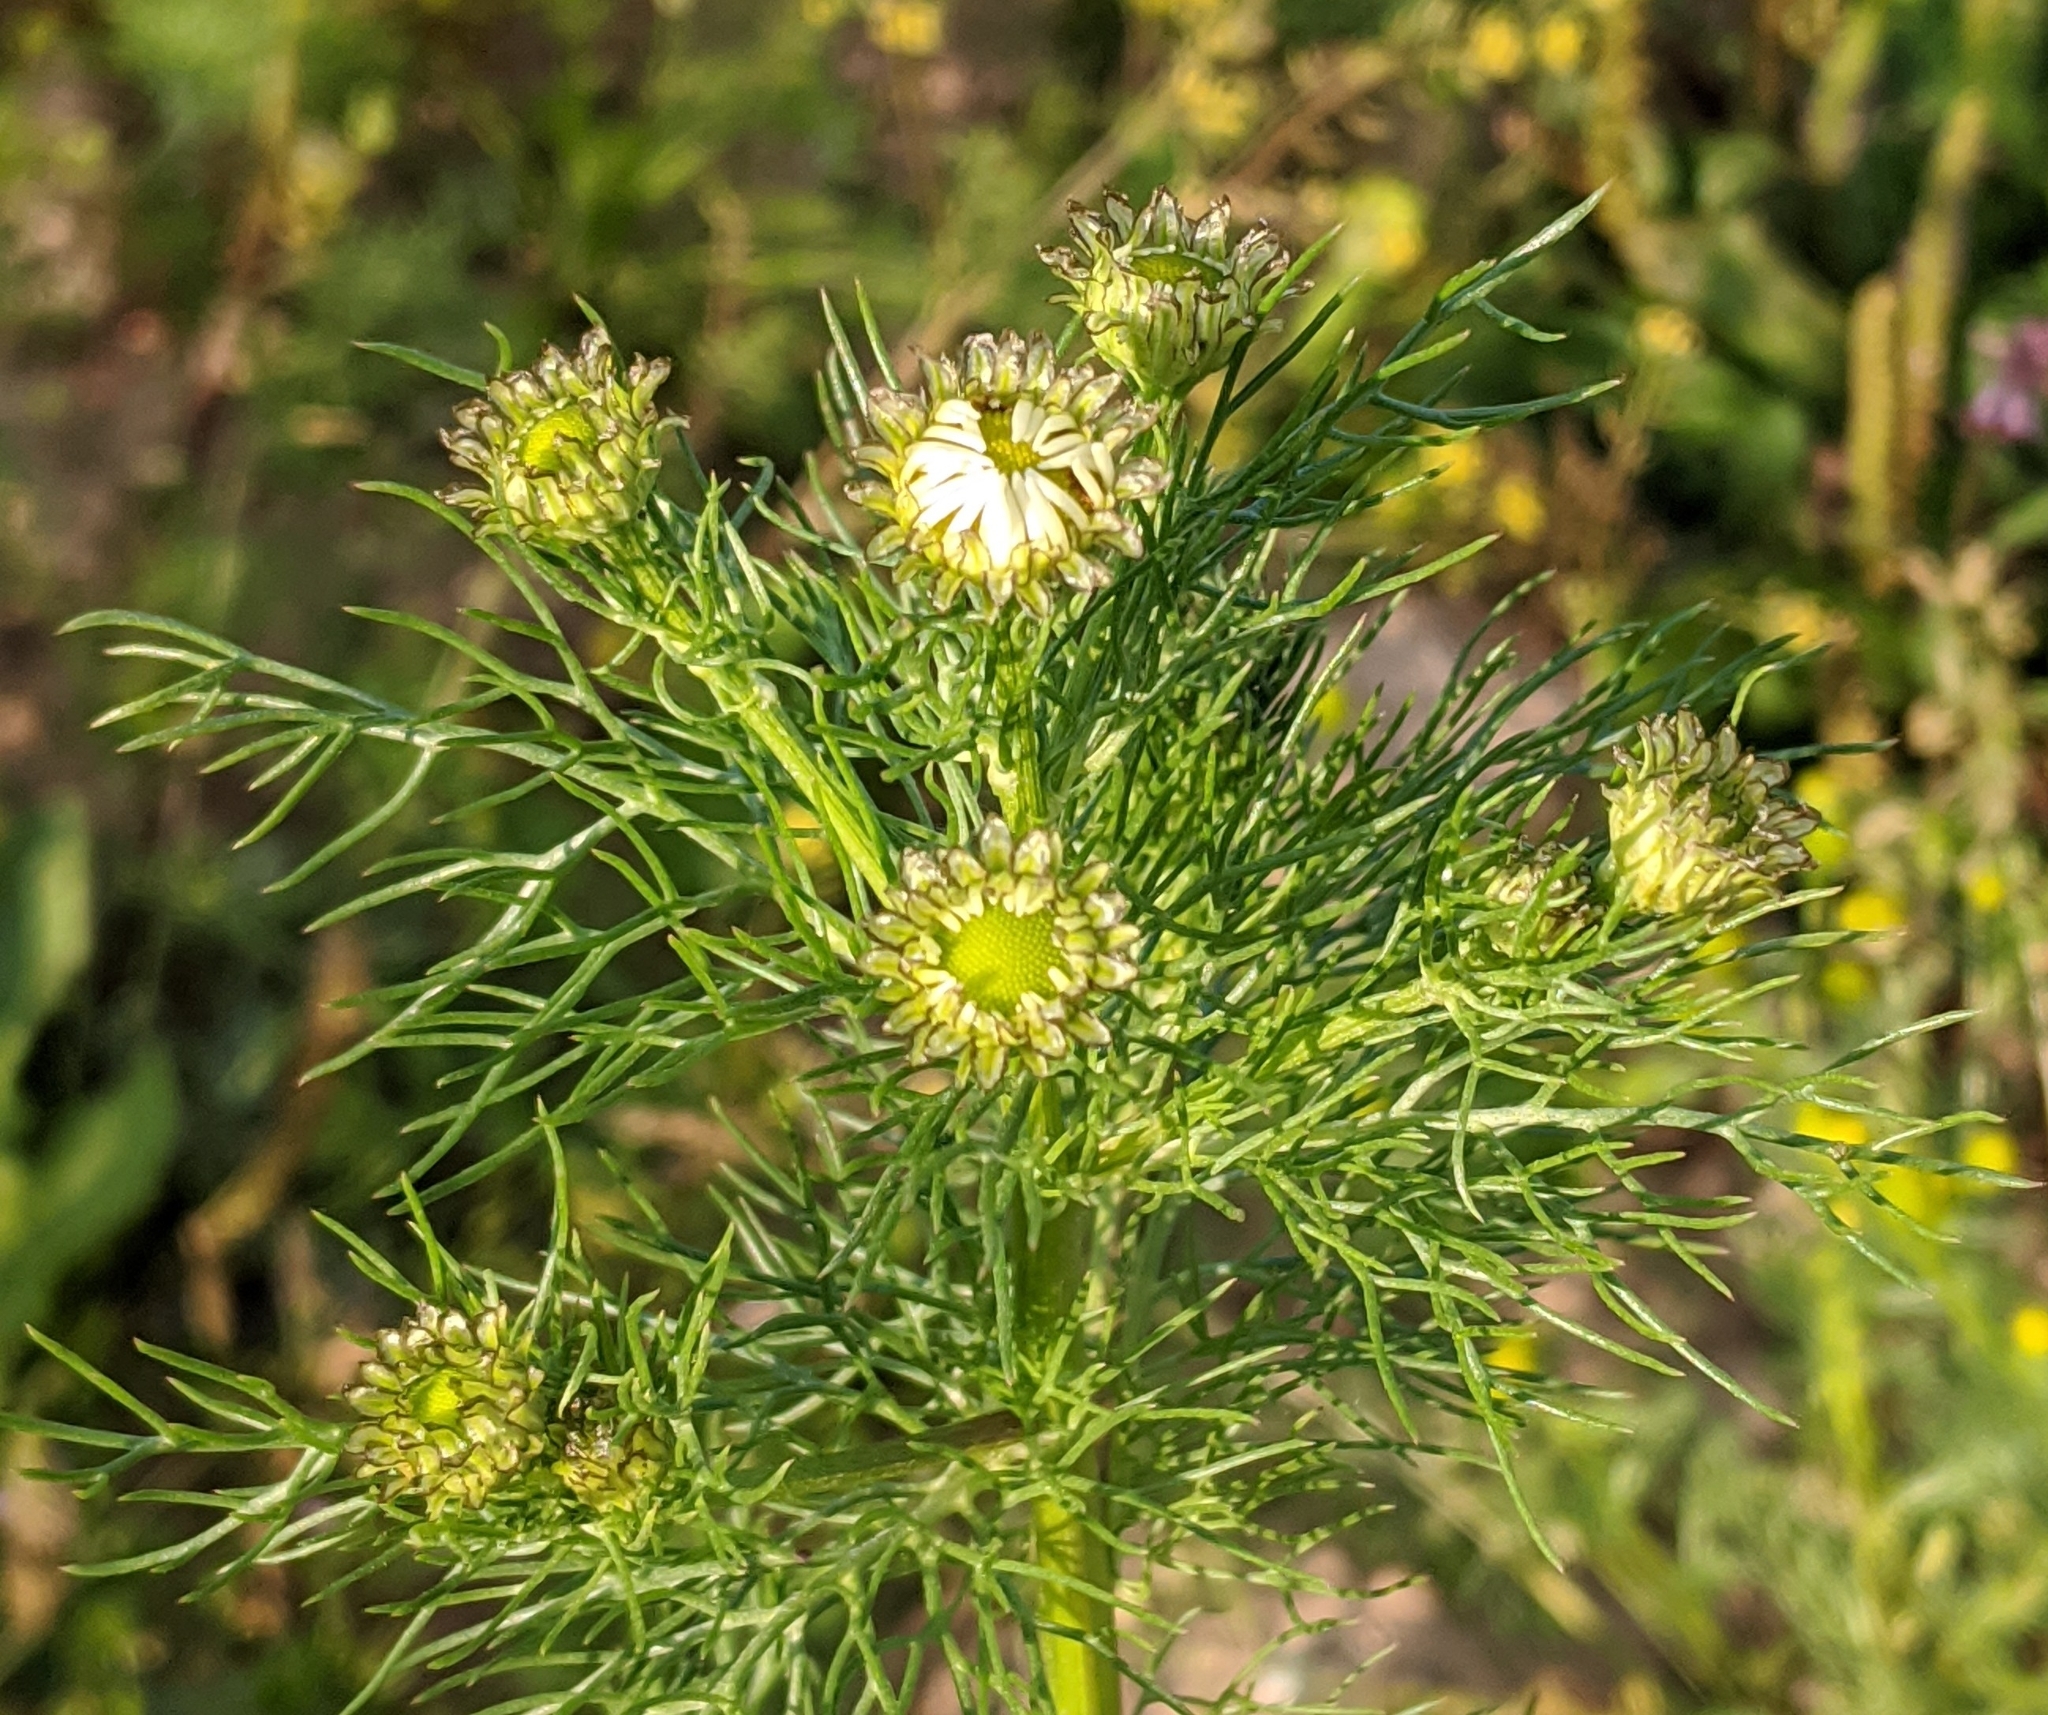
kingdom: Plantae
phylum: Tracheophyta
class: Magnoliopsida
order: Asterales
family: Asteraceae
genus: Tripleurospermum
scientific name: Tripleurospermum inodorum
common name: Scentless mayweed
